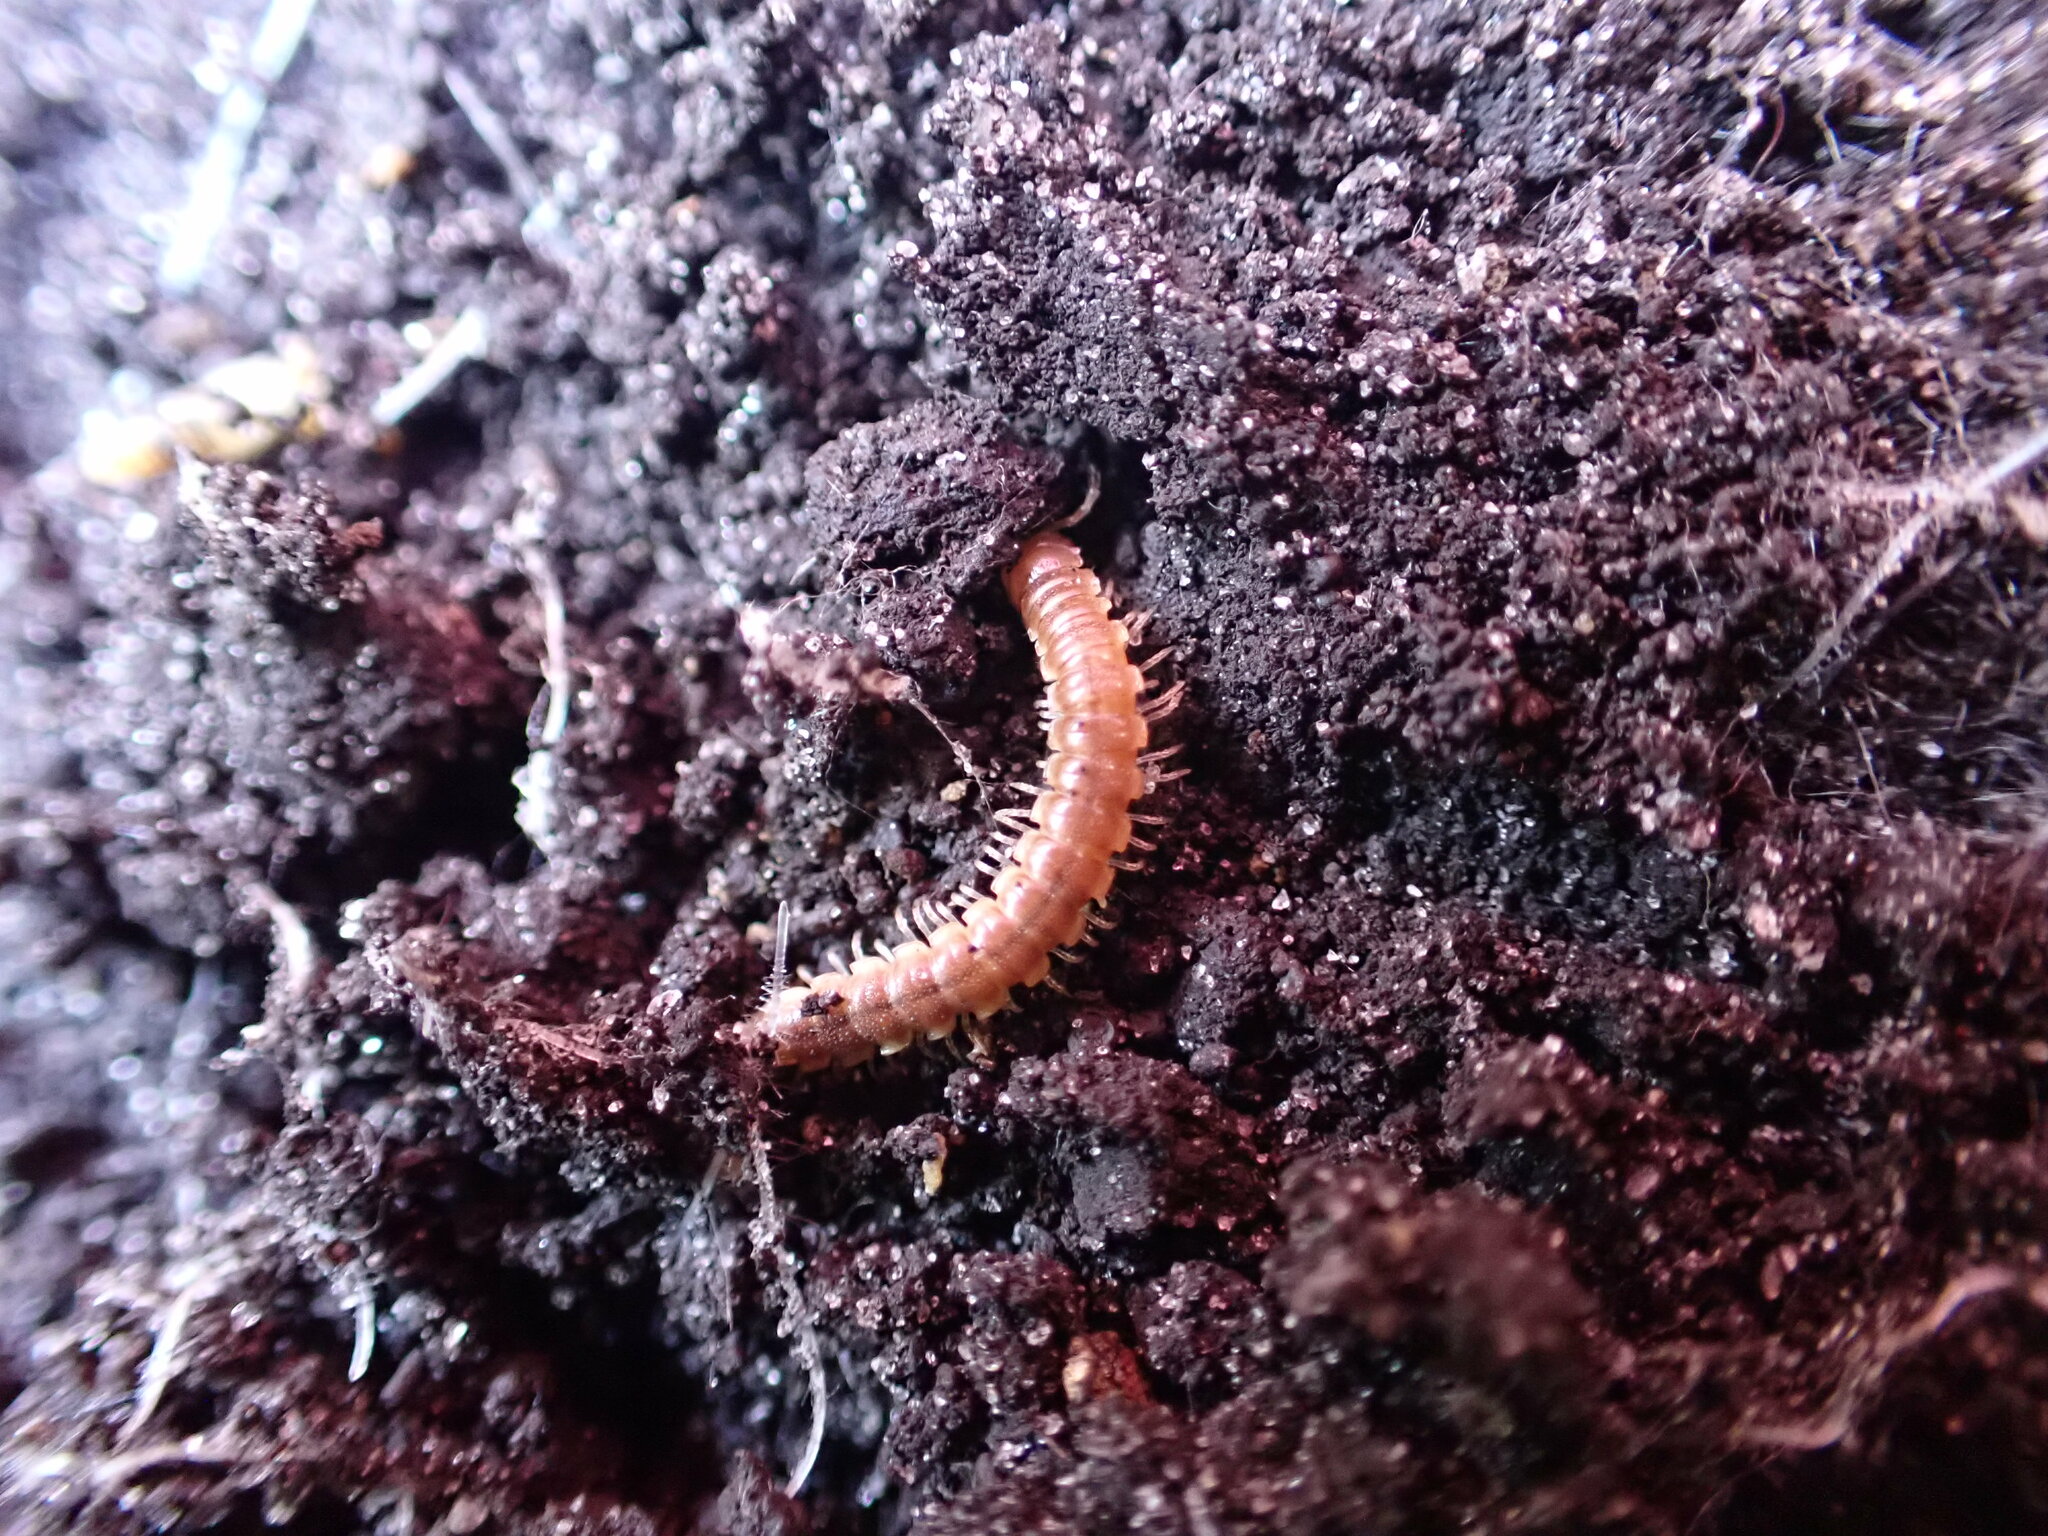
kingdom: Animalia
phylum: Arthropoda
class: Diplopoda
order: Polydesmida
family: Paradoxosomatidae
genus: Oxidus
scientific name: Oxidus gracilis
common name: Greenhouse millipede
